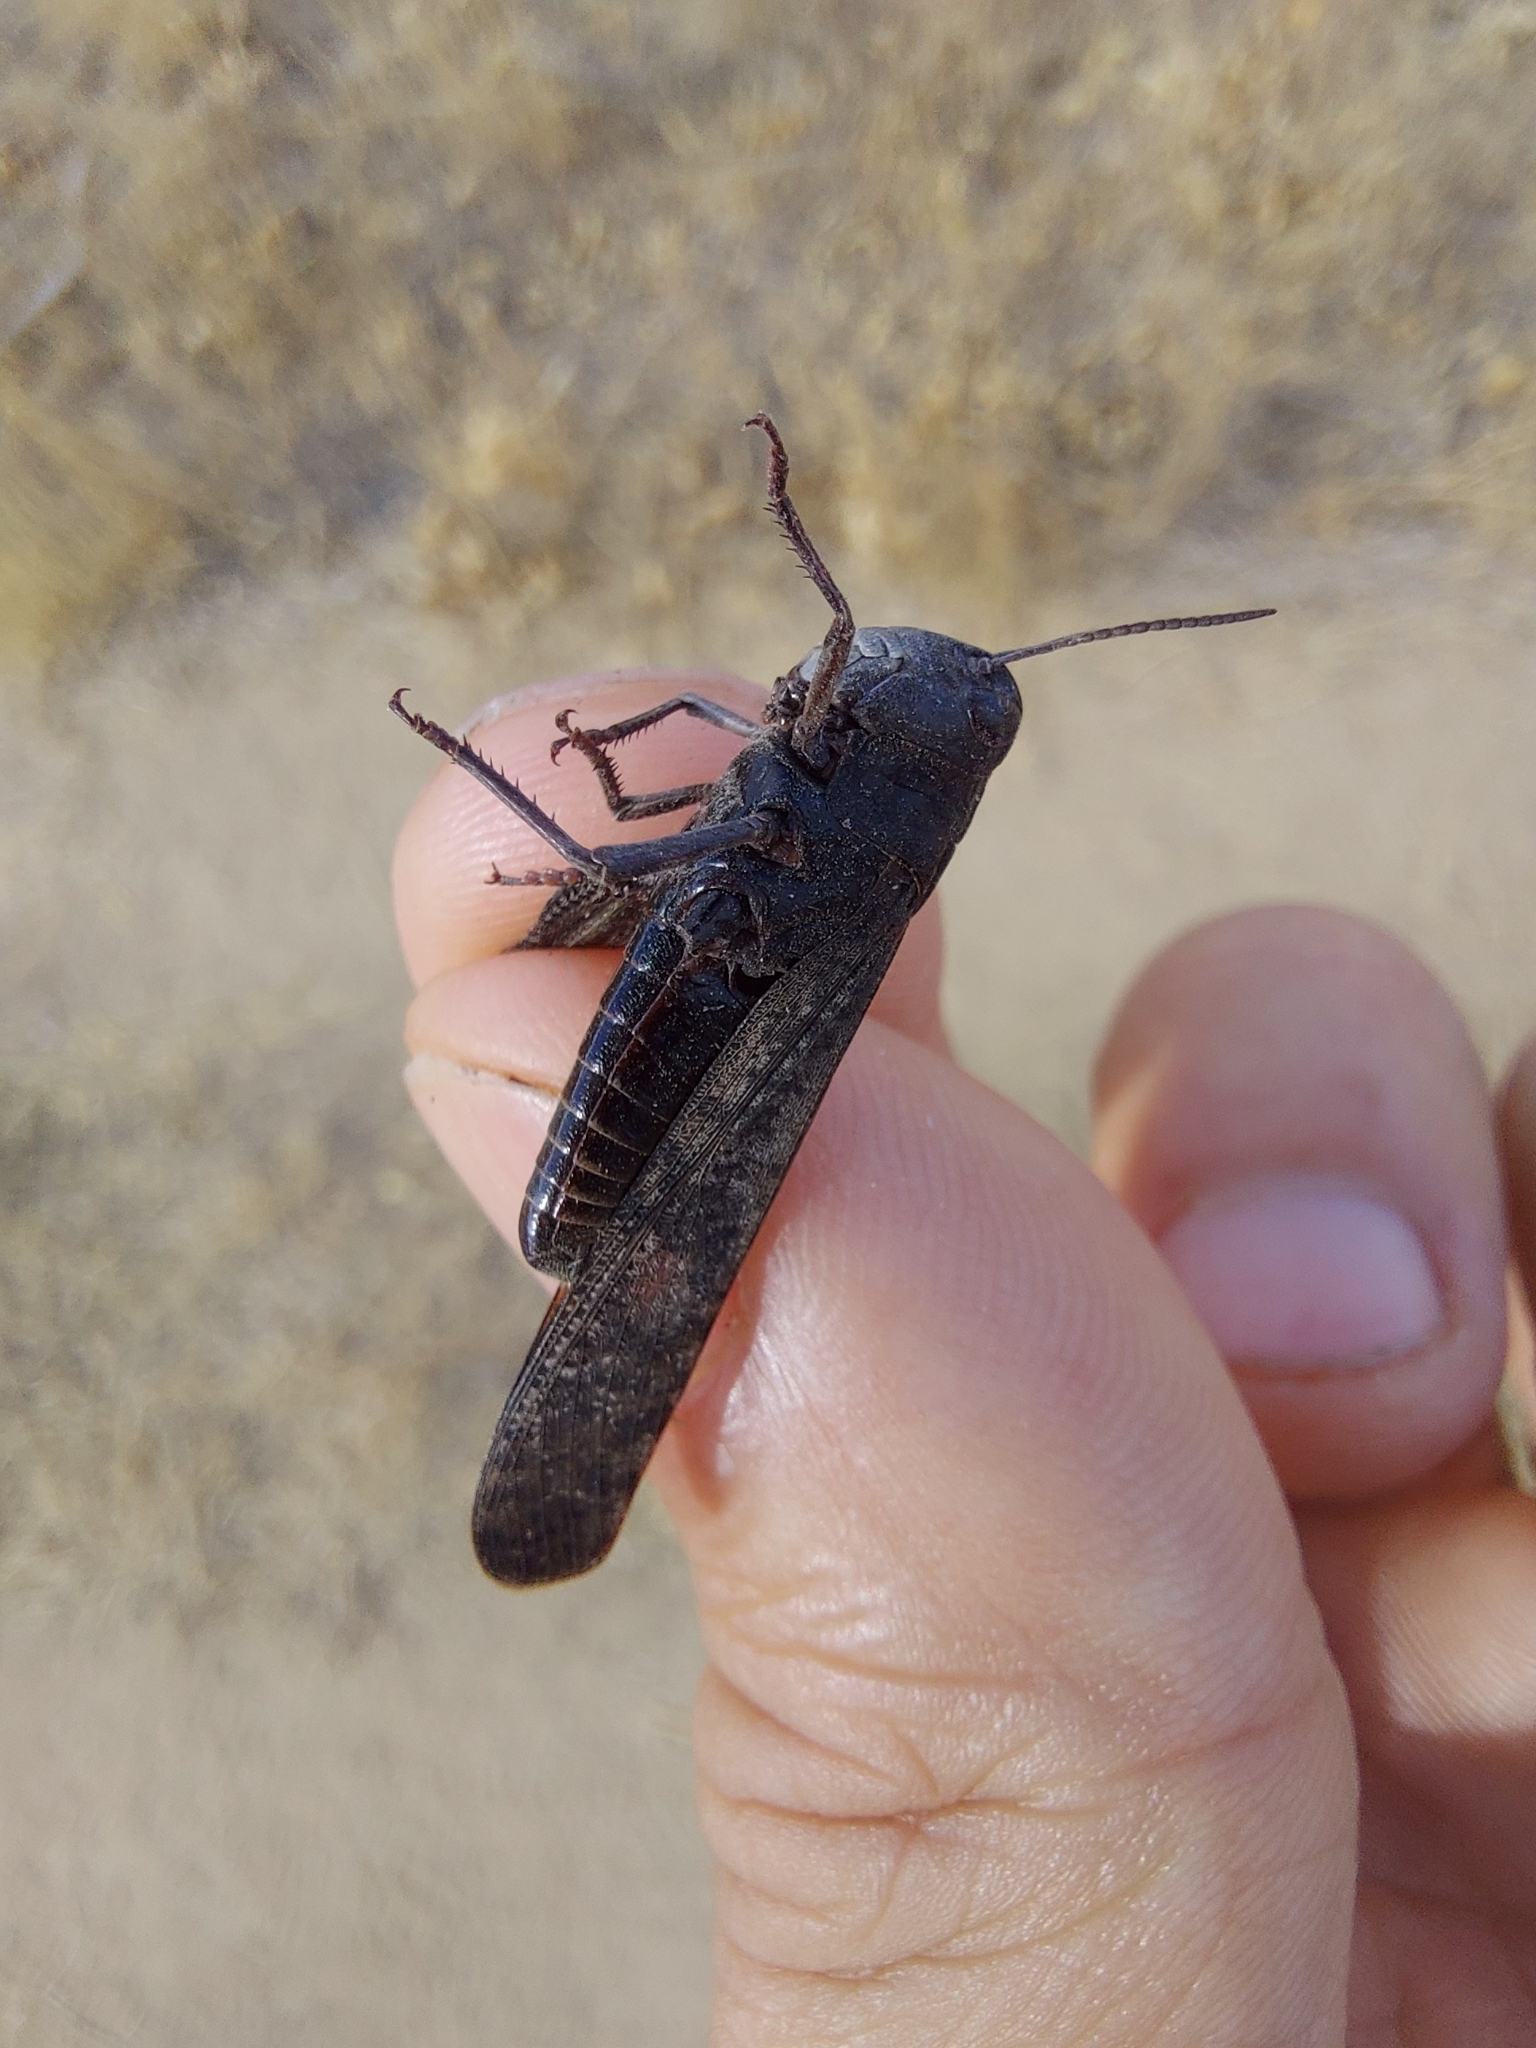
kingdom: Animalia
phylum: Arthropoda
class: Insecta
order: Orthoptera
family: Acrididae
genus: Arphia
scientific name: Arphia pseudo-nietana
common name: Red-winged grasshopper
